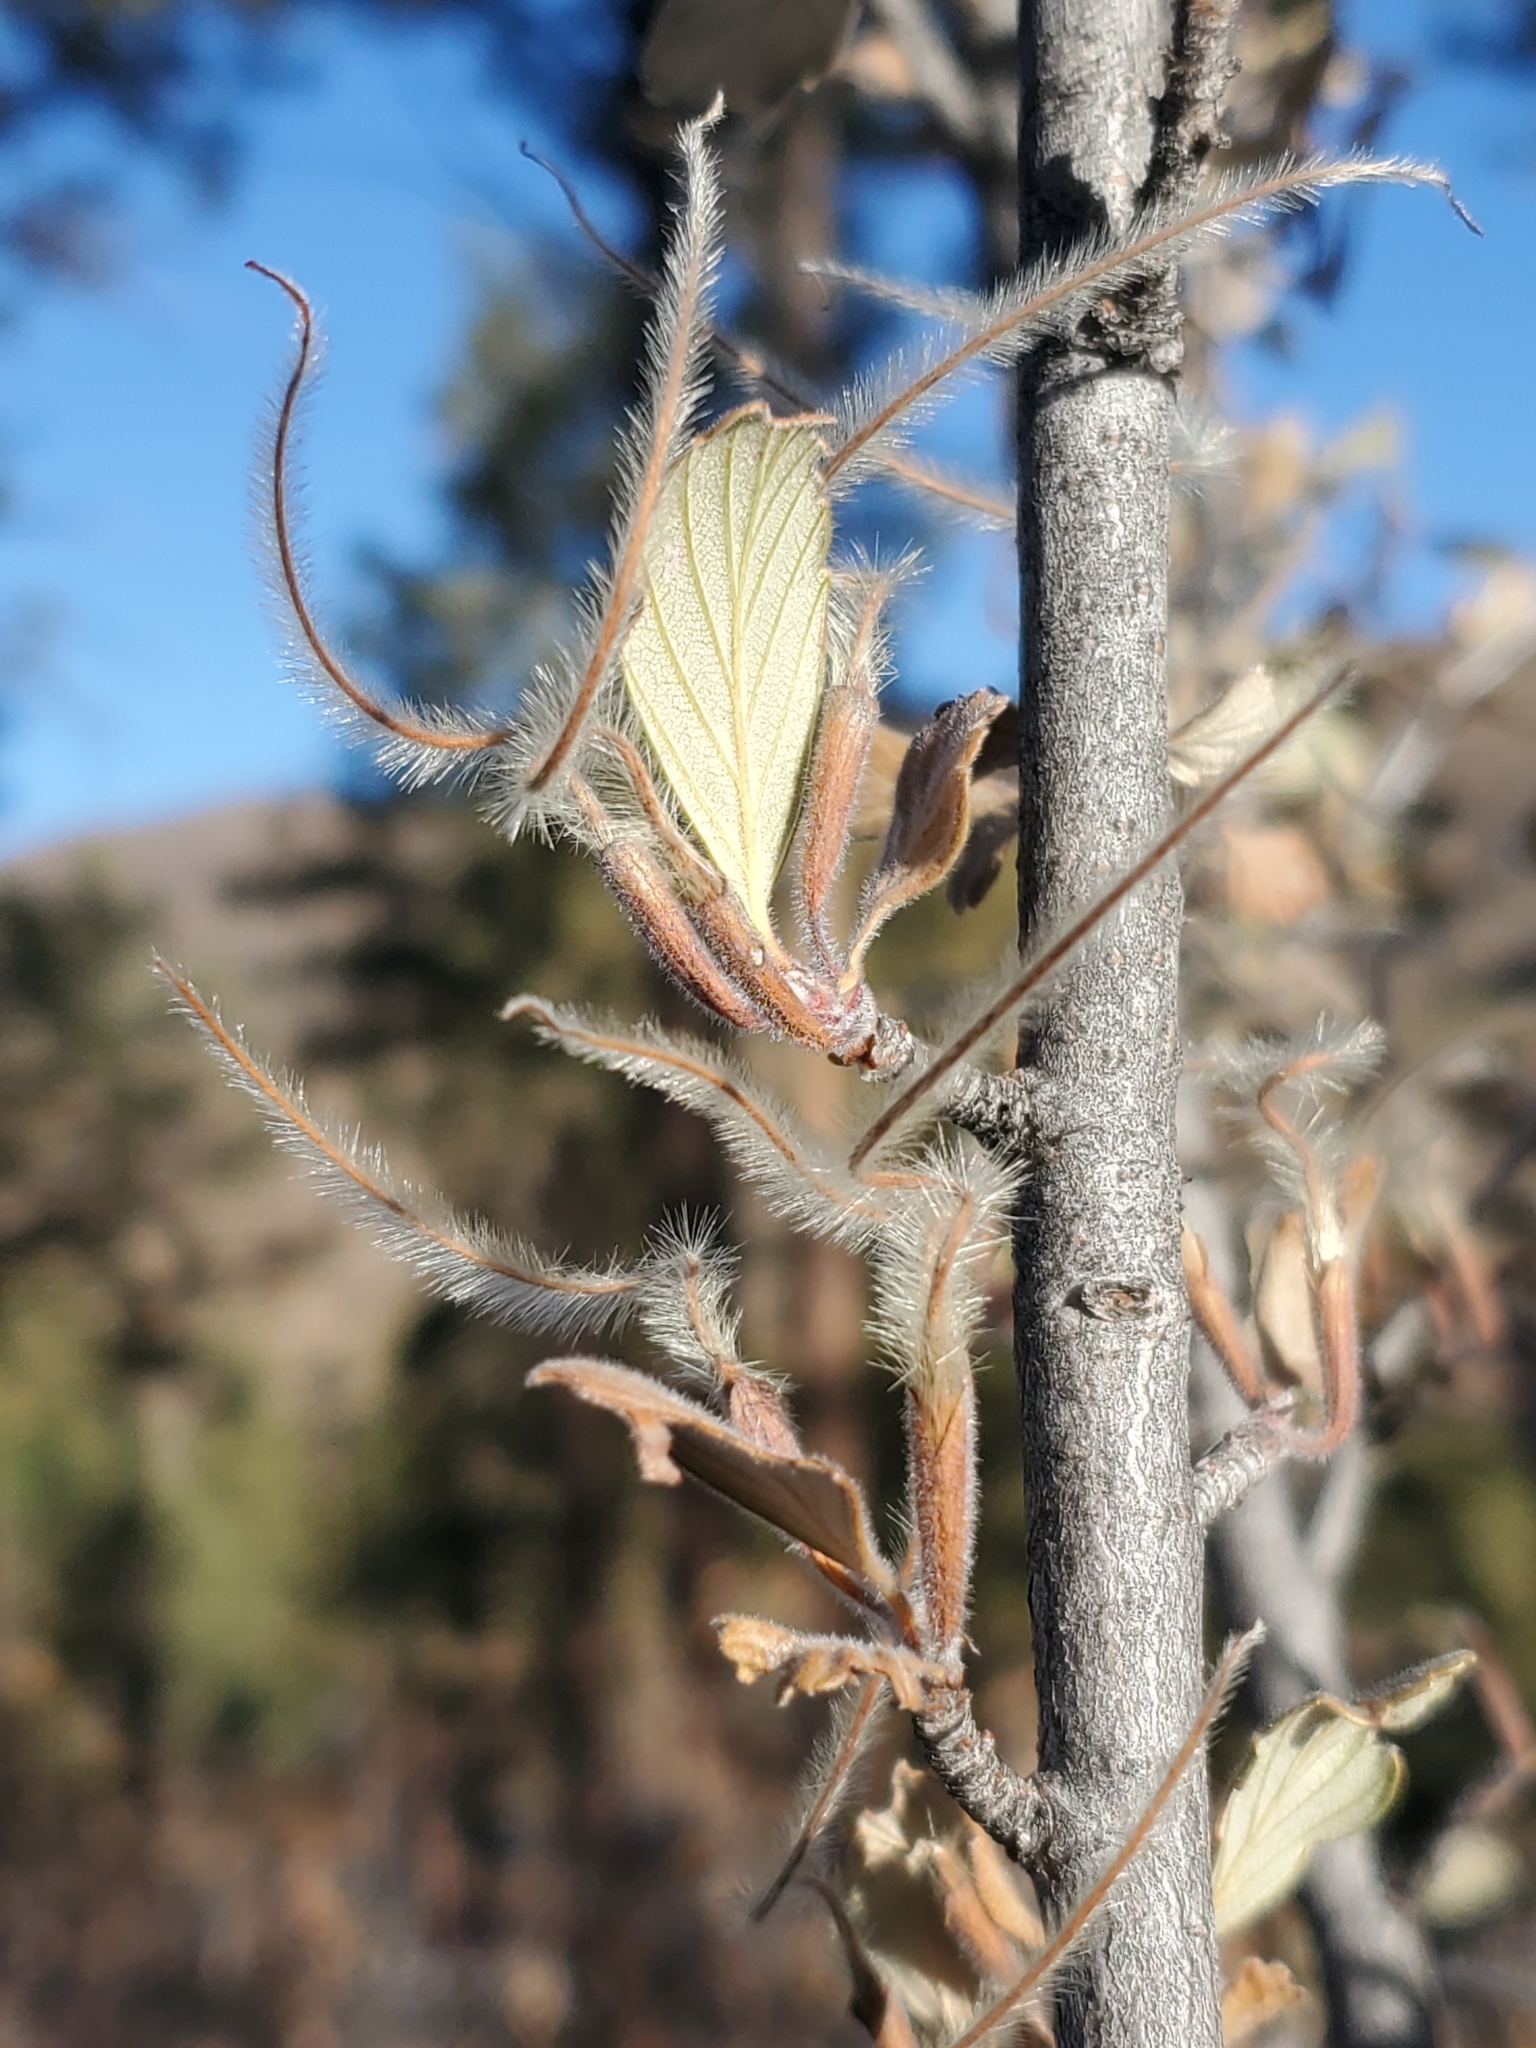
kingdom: Plantae
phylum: Tracheophyta
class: Magnoliopsida
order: Rosales
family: Rosaceae
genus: Cercocarpus
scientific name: Cercocarpus montanus
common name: Alder-leaf cercocarpus
